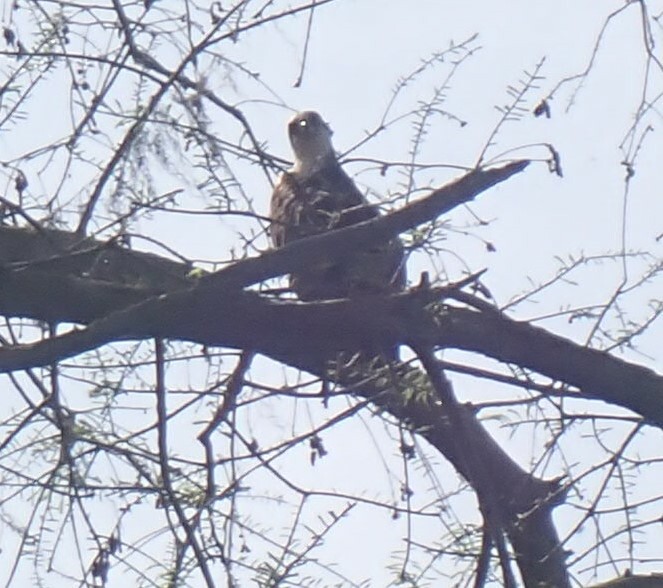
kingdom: Animalia
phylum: Chordata
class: Aves
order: Accipitriformes
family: Pandionidae
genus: Pandion
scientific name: Pandion haliaetus
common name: Osprey
